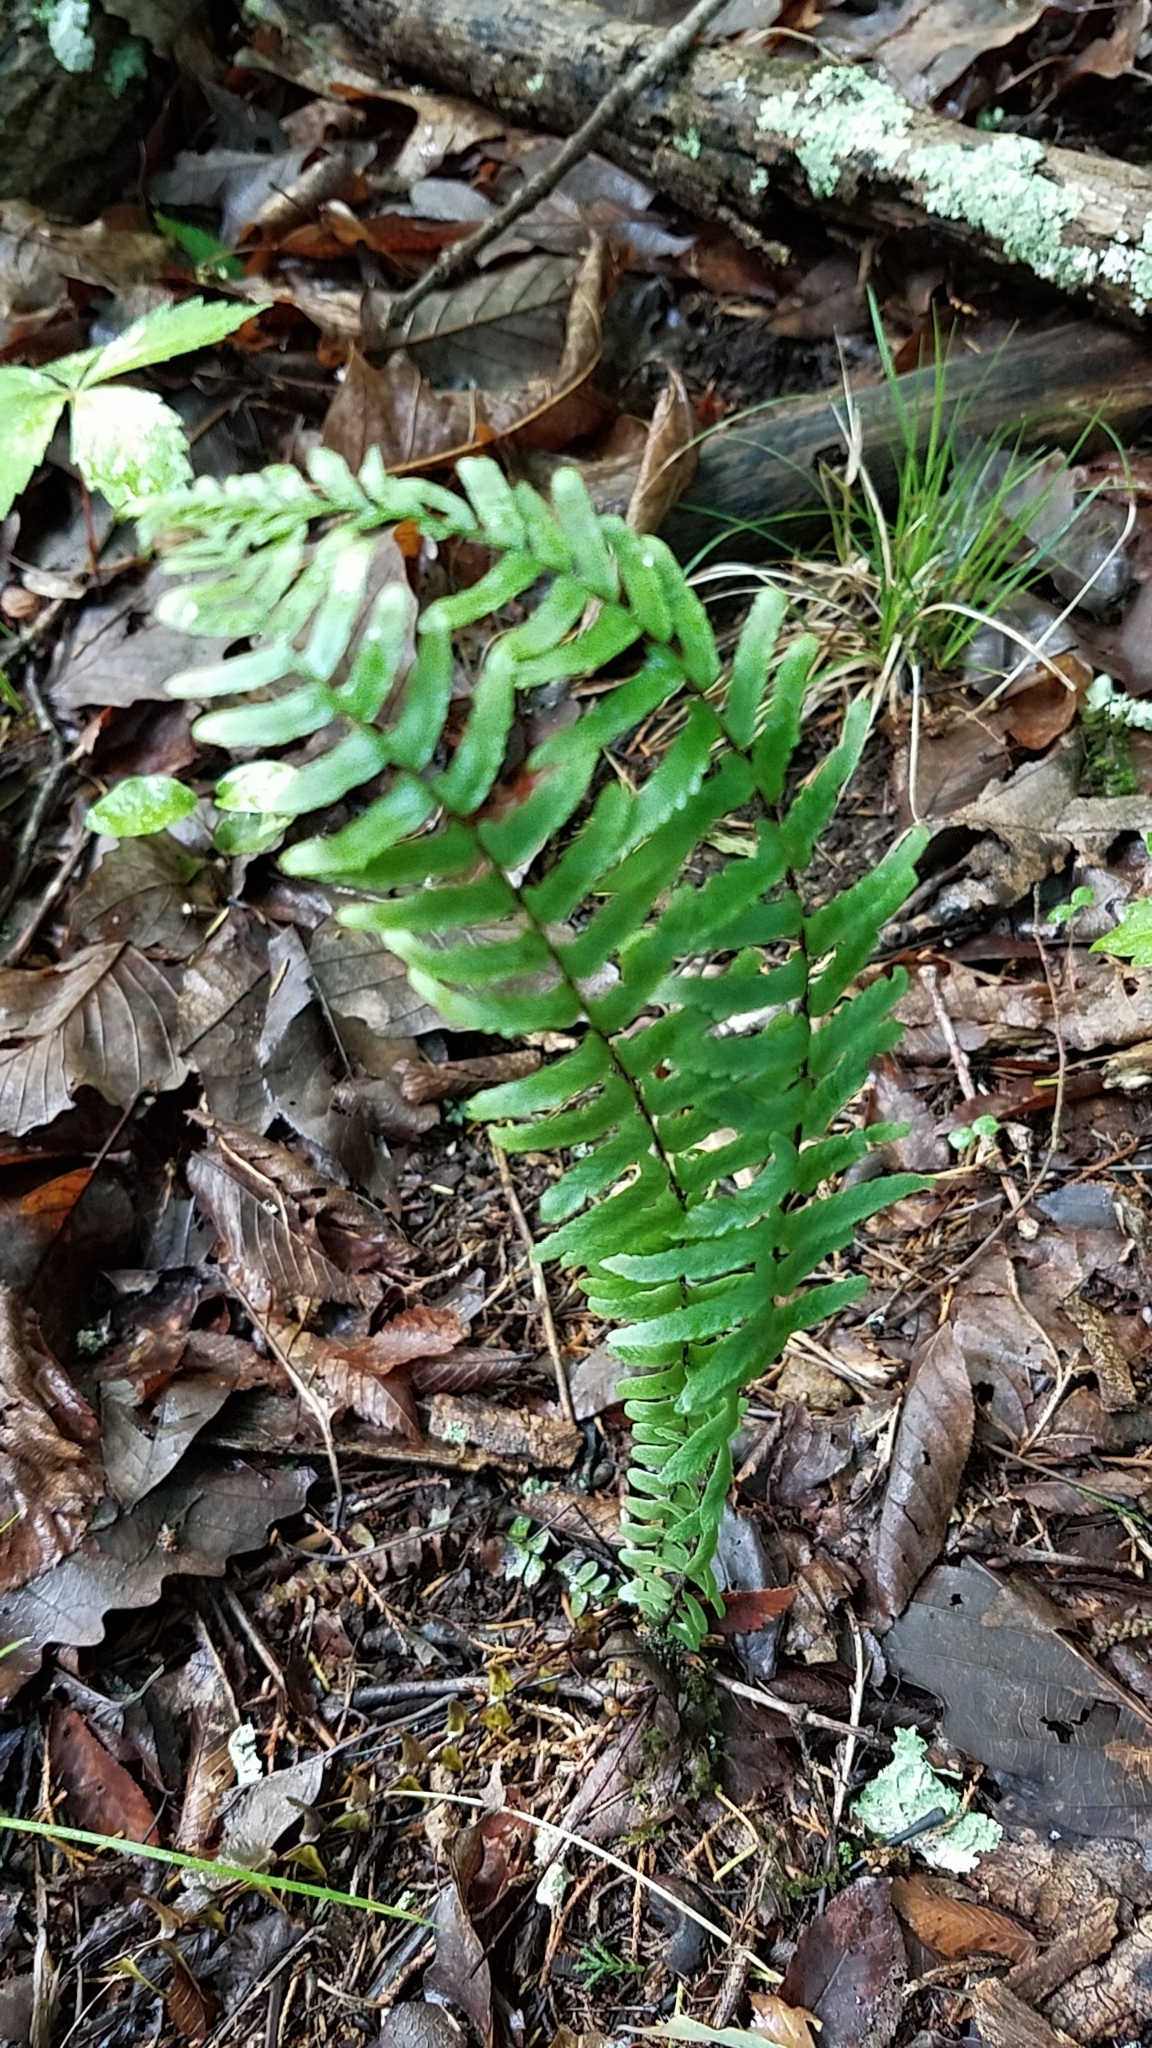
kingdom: Plantae
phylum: Tracheophyta
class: Polypodiopsida
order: Polypodiales
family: Aspleniaceae
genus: Asplenium
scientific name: Asplenium platyneuron
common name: Ebony spleenwort
